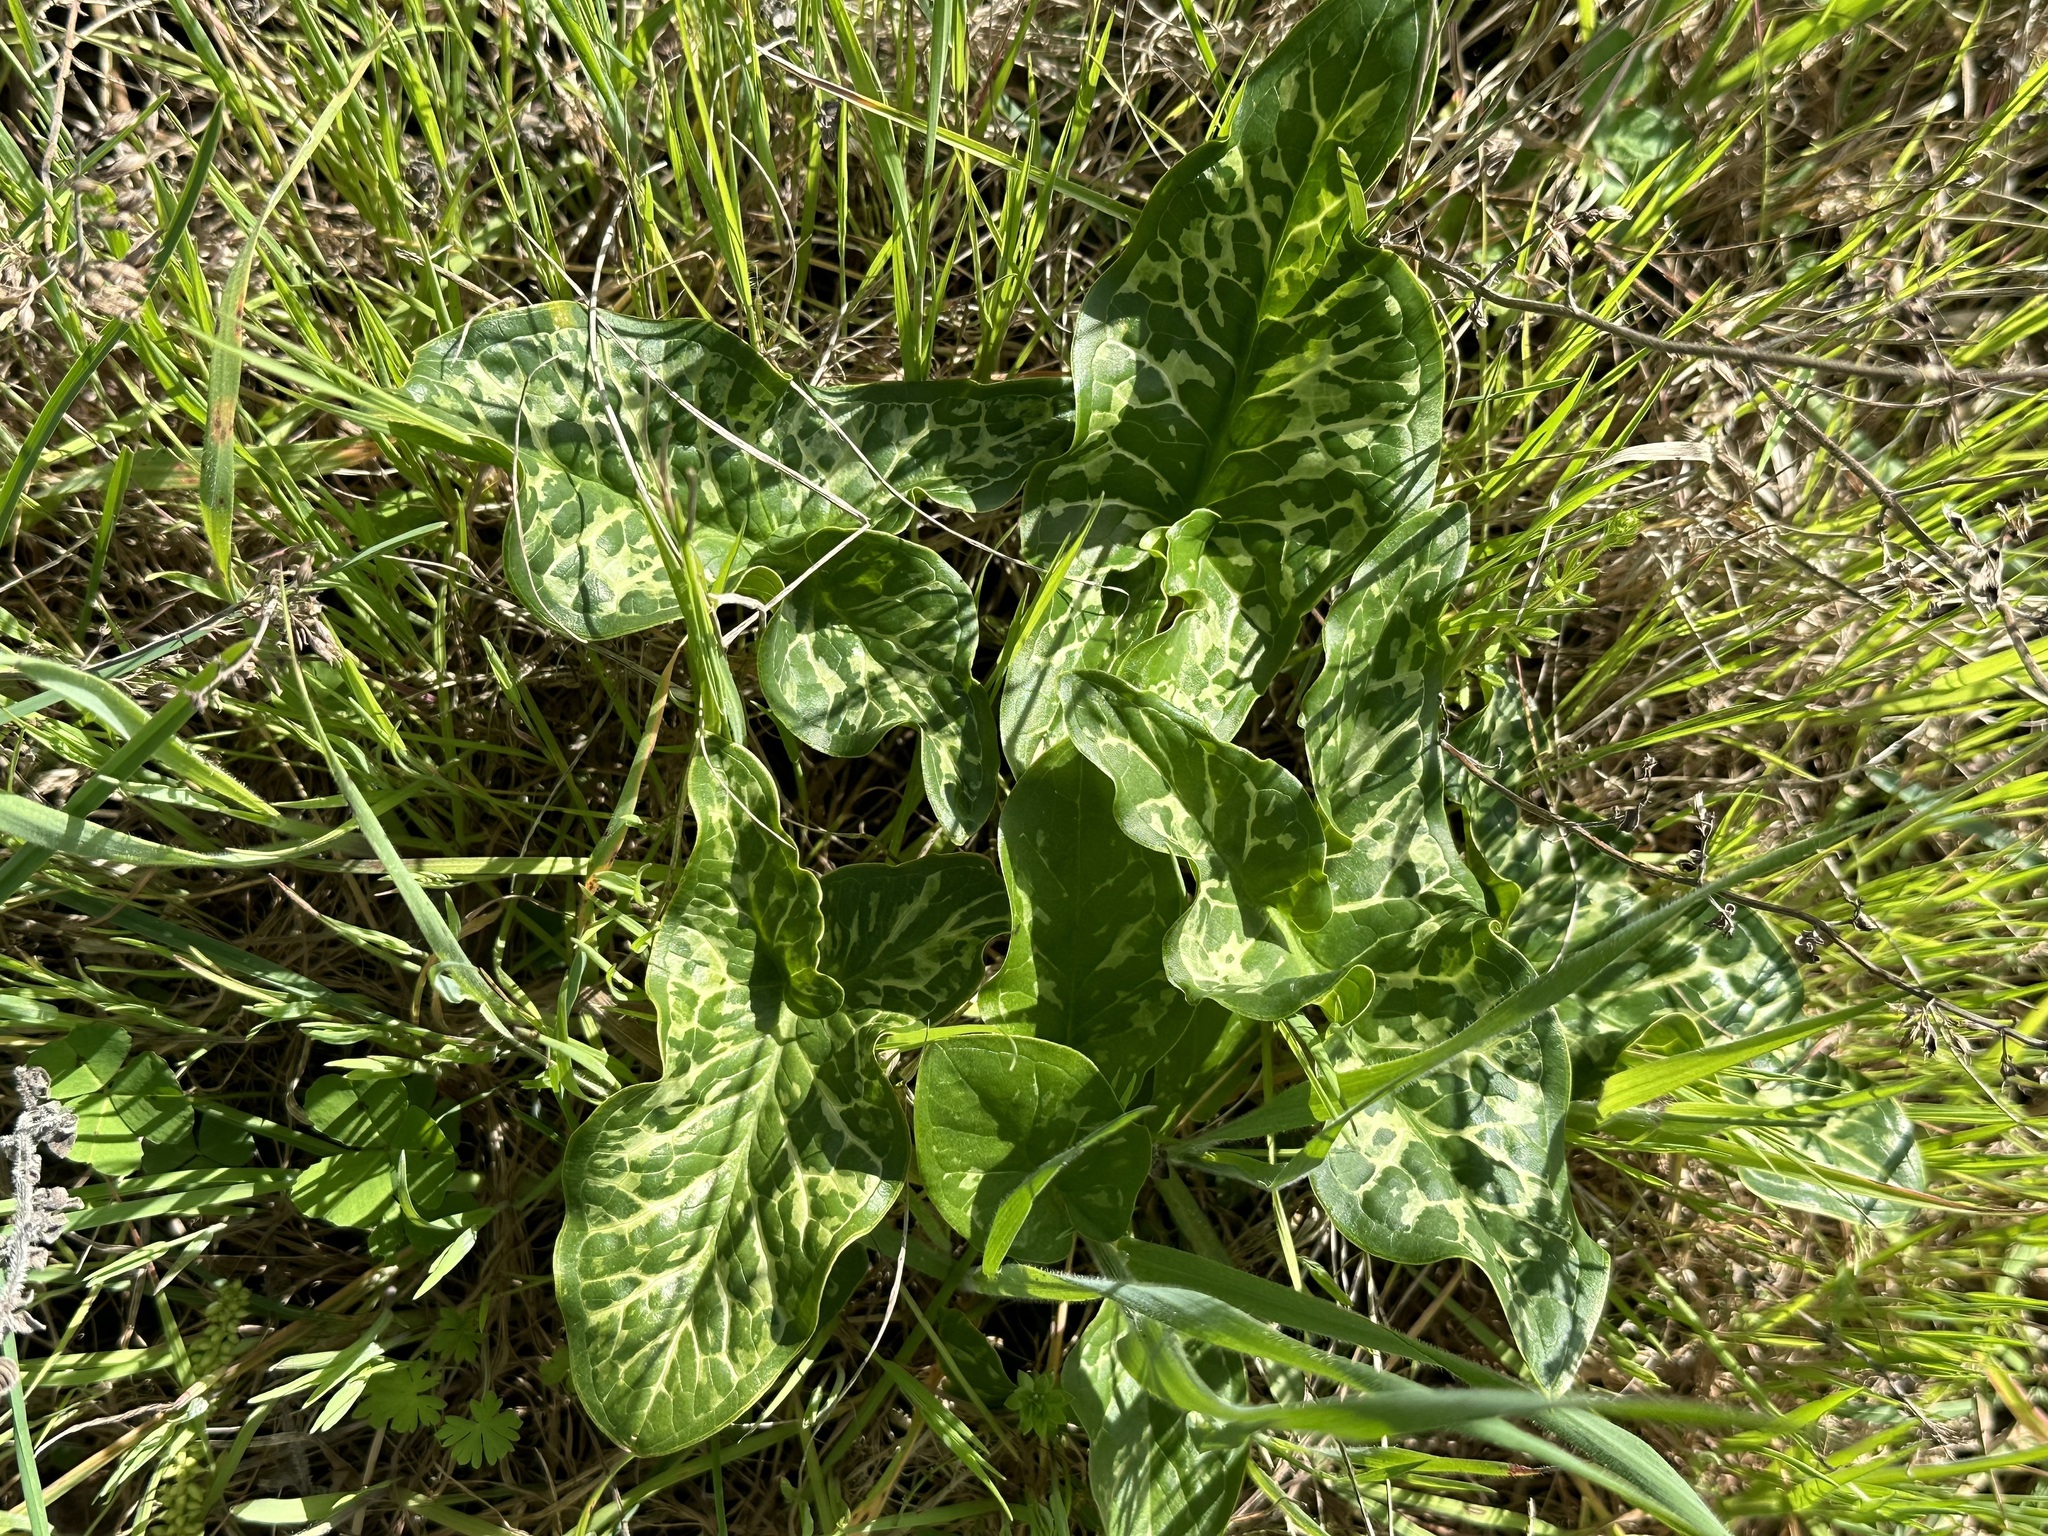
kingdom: Plantae
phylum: Tracheophyta
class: Liliopsida
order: Alismatales
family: Araceae
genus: Arum
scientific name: Arum italicum
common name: Italian lords-and-ladies
